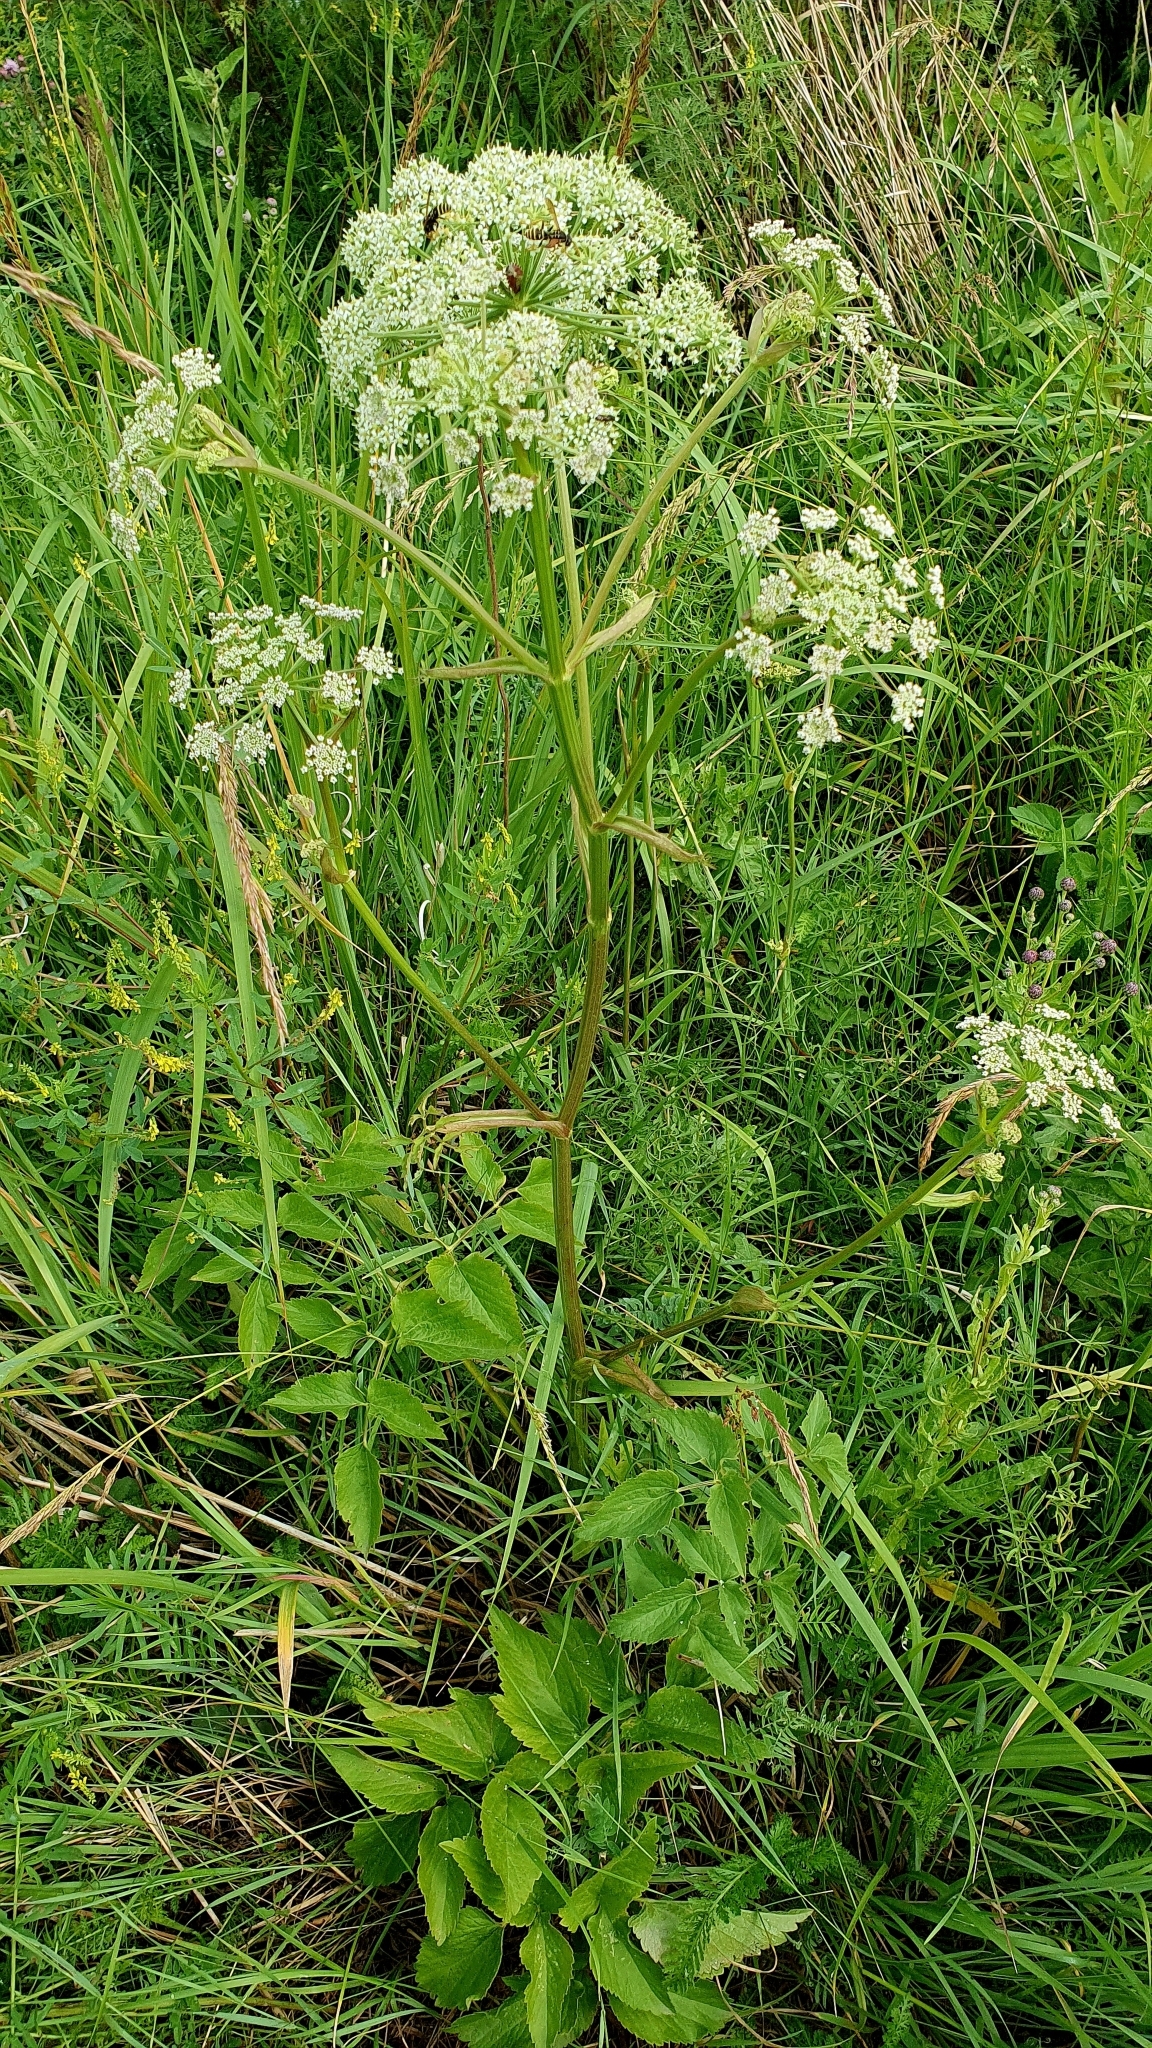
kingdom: Plantae
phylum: Tracheophyta
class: Magnoliopsida
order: Apiales
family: Apiaceae
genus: Ostericum
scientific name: Ostericum palustre
